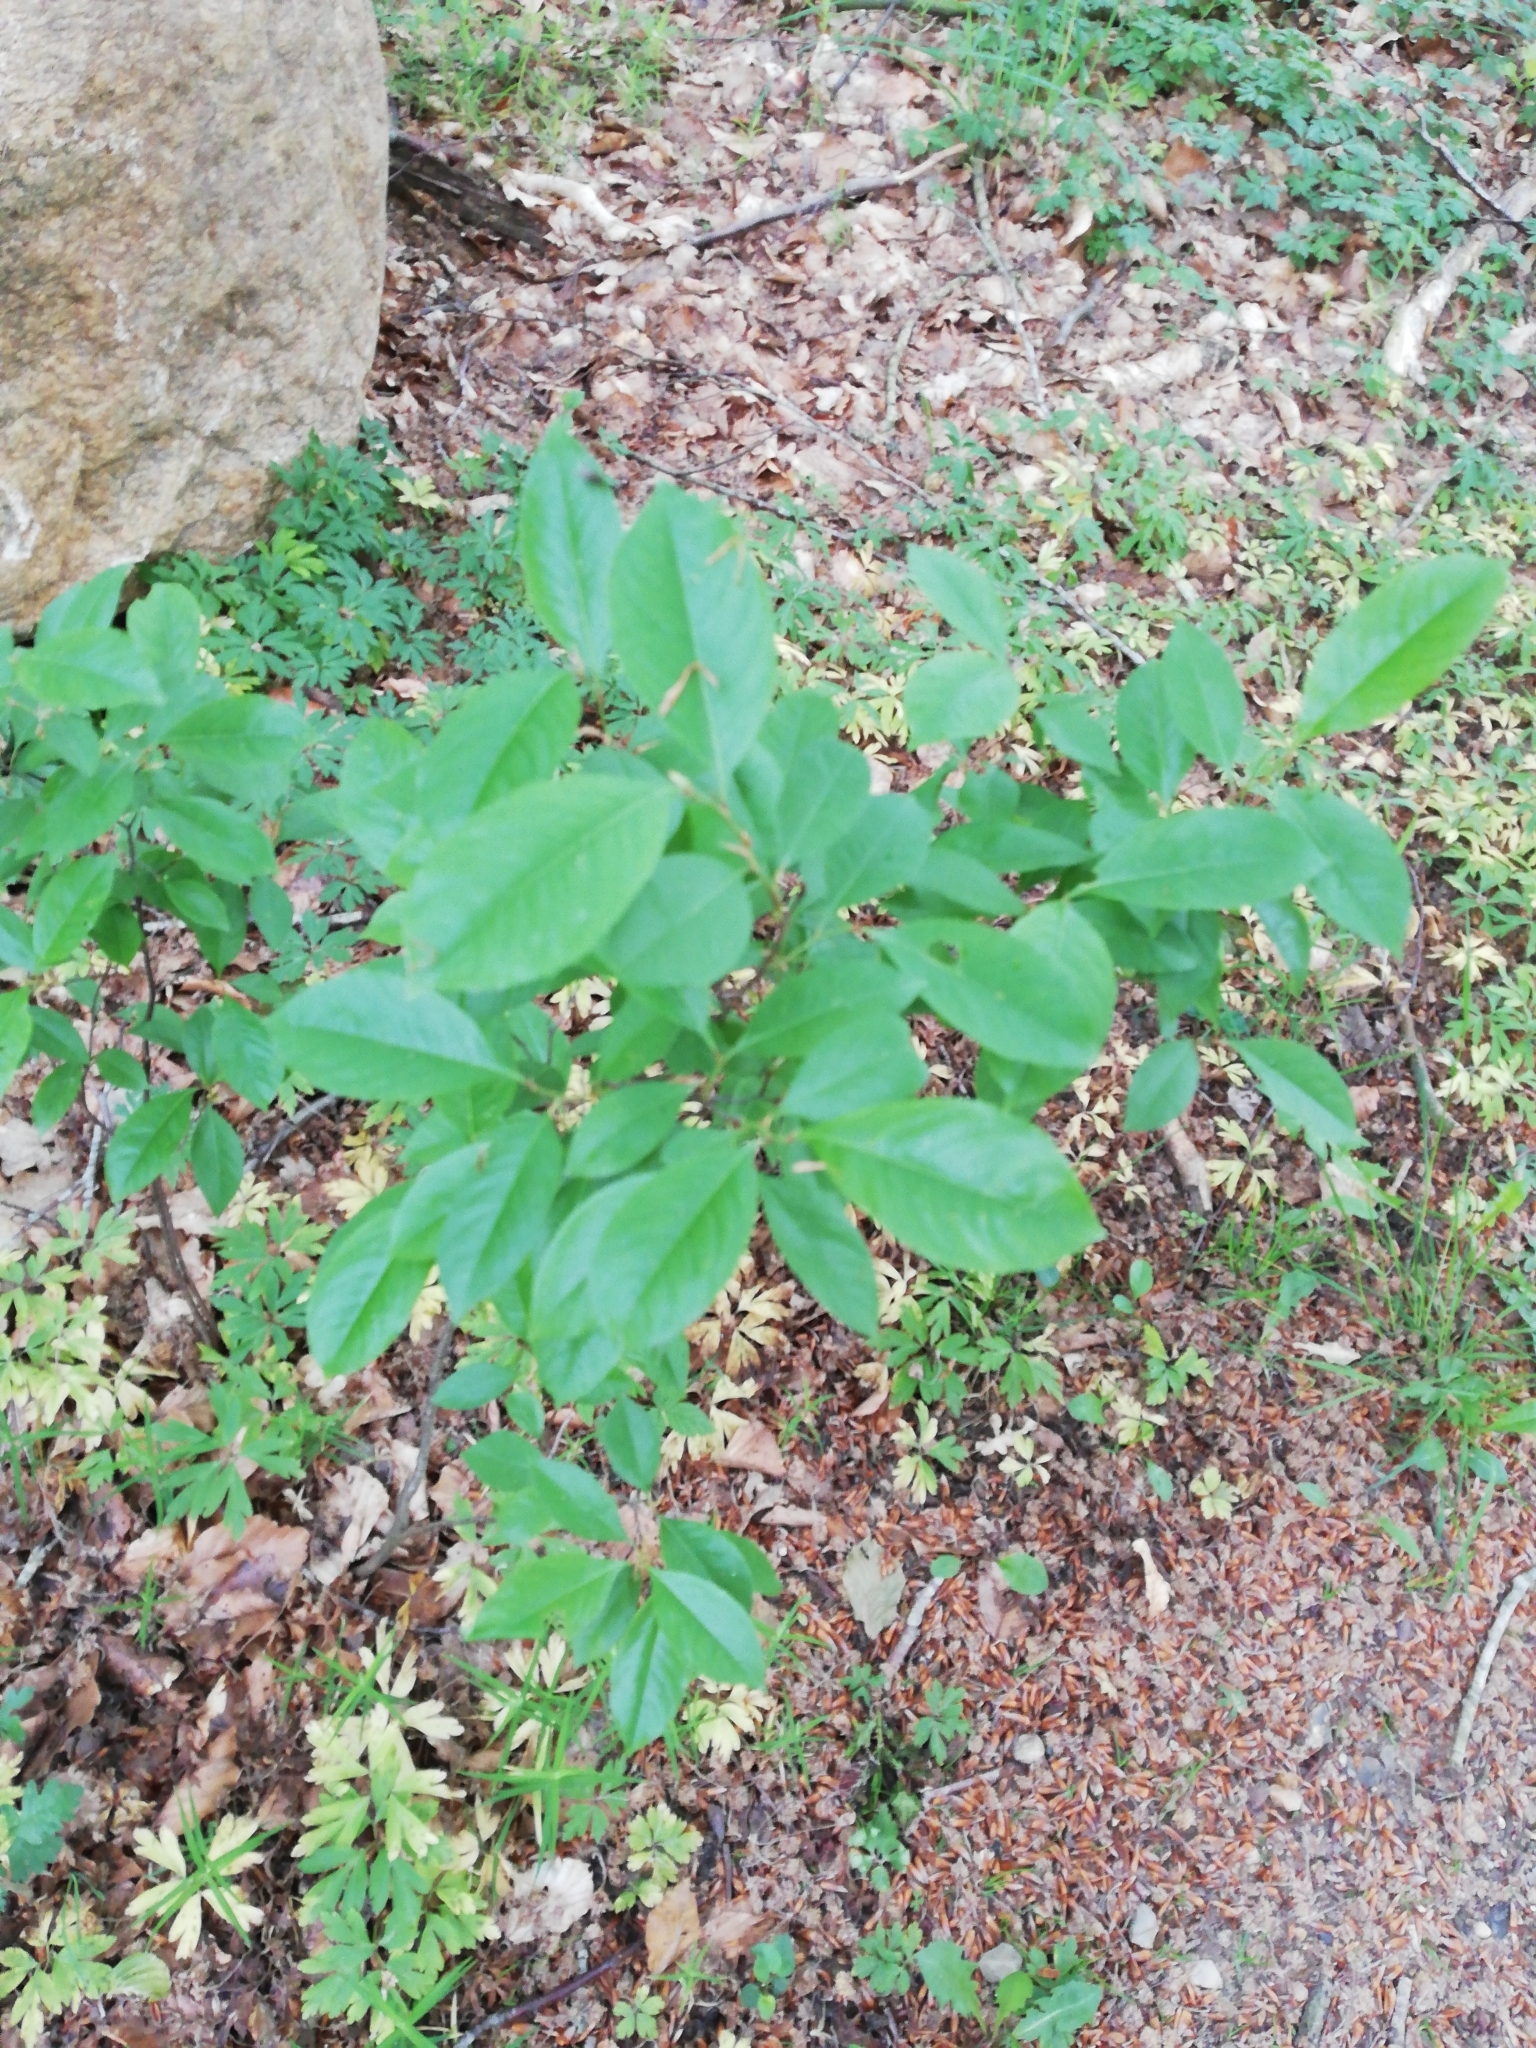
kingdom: Plantae
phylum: Tracheophyta
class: Magnoliopsida
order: Rosales
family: Rosaceae
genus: Prunus
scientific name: Prunus serotina
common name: Black cherry
